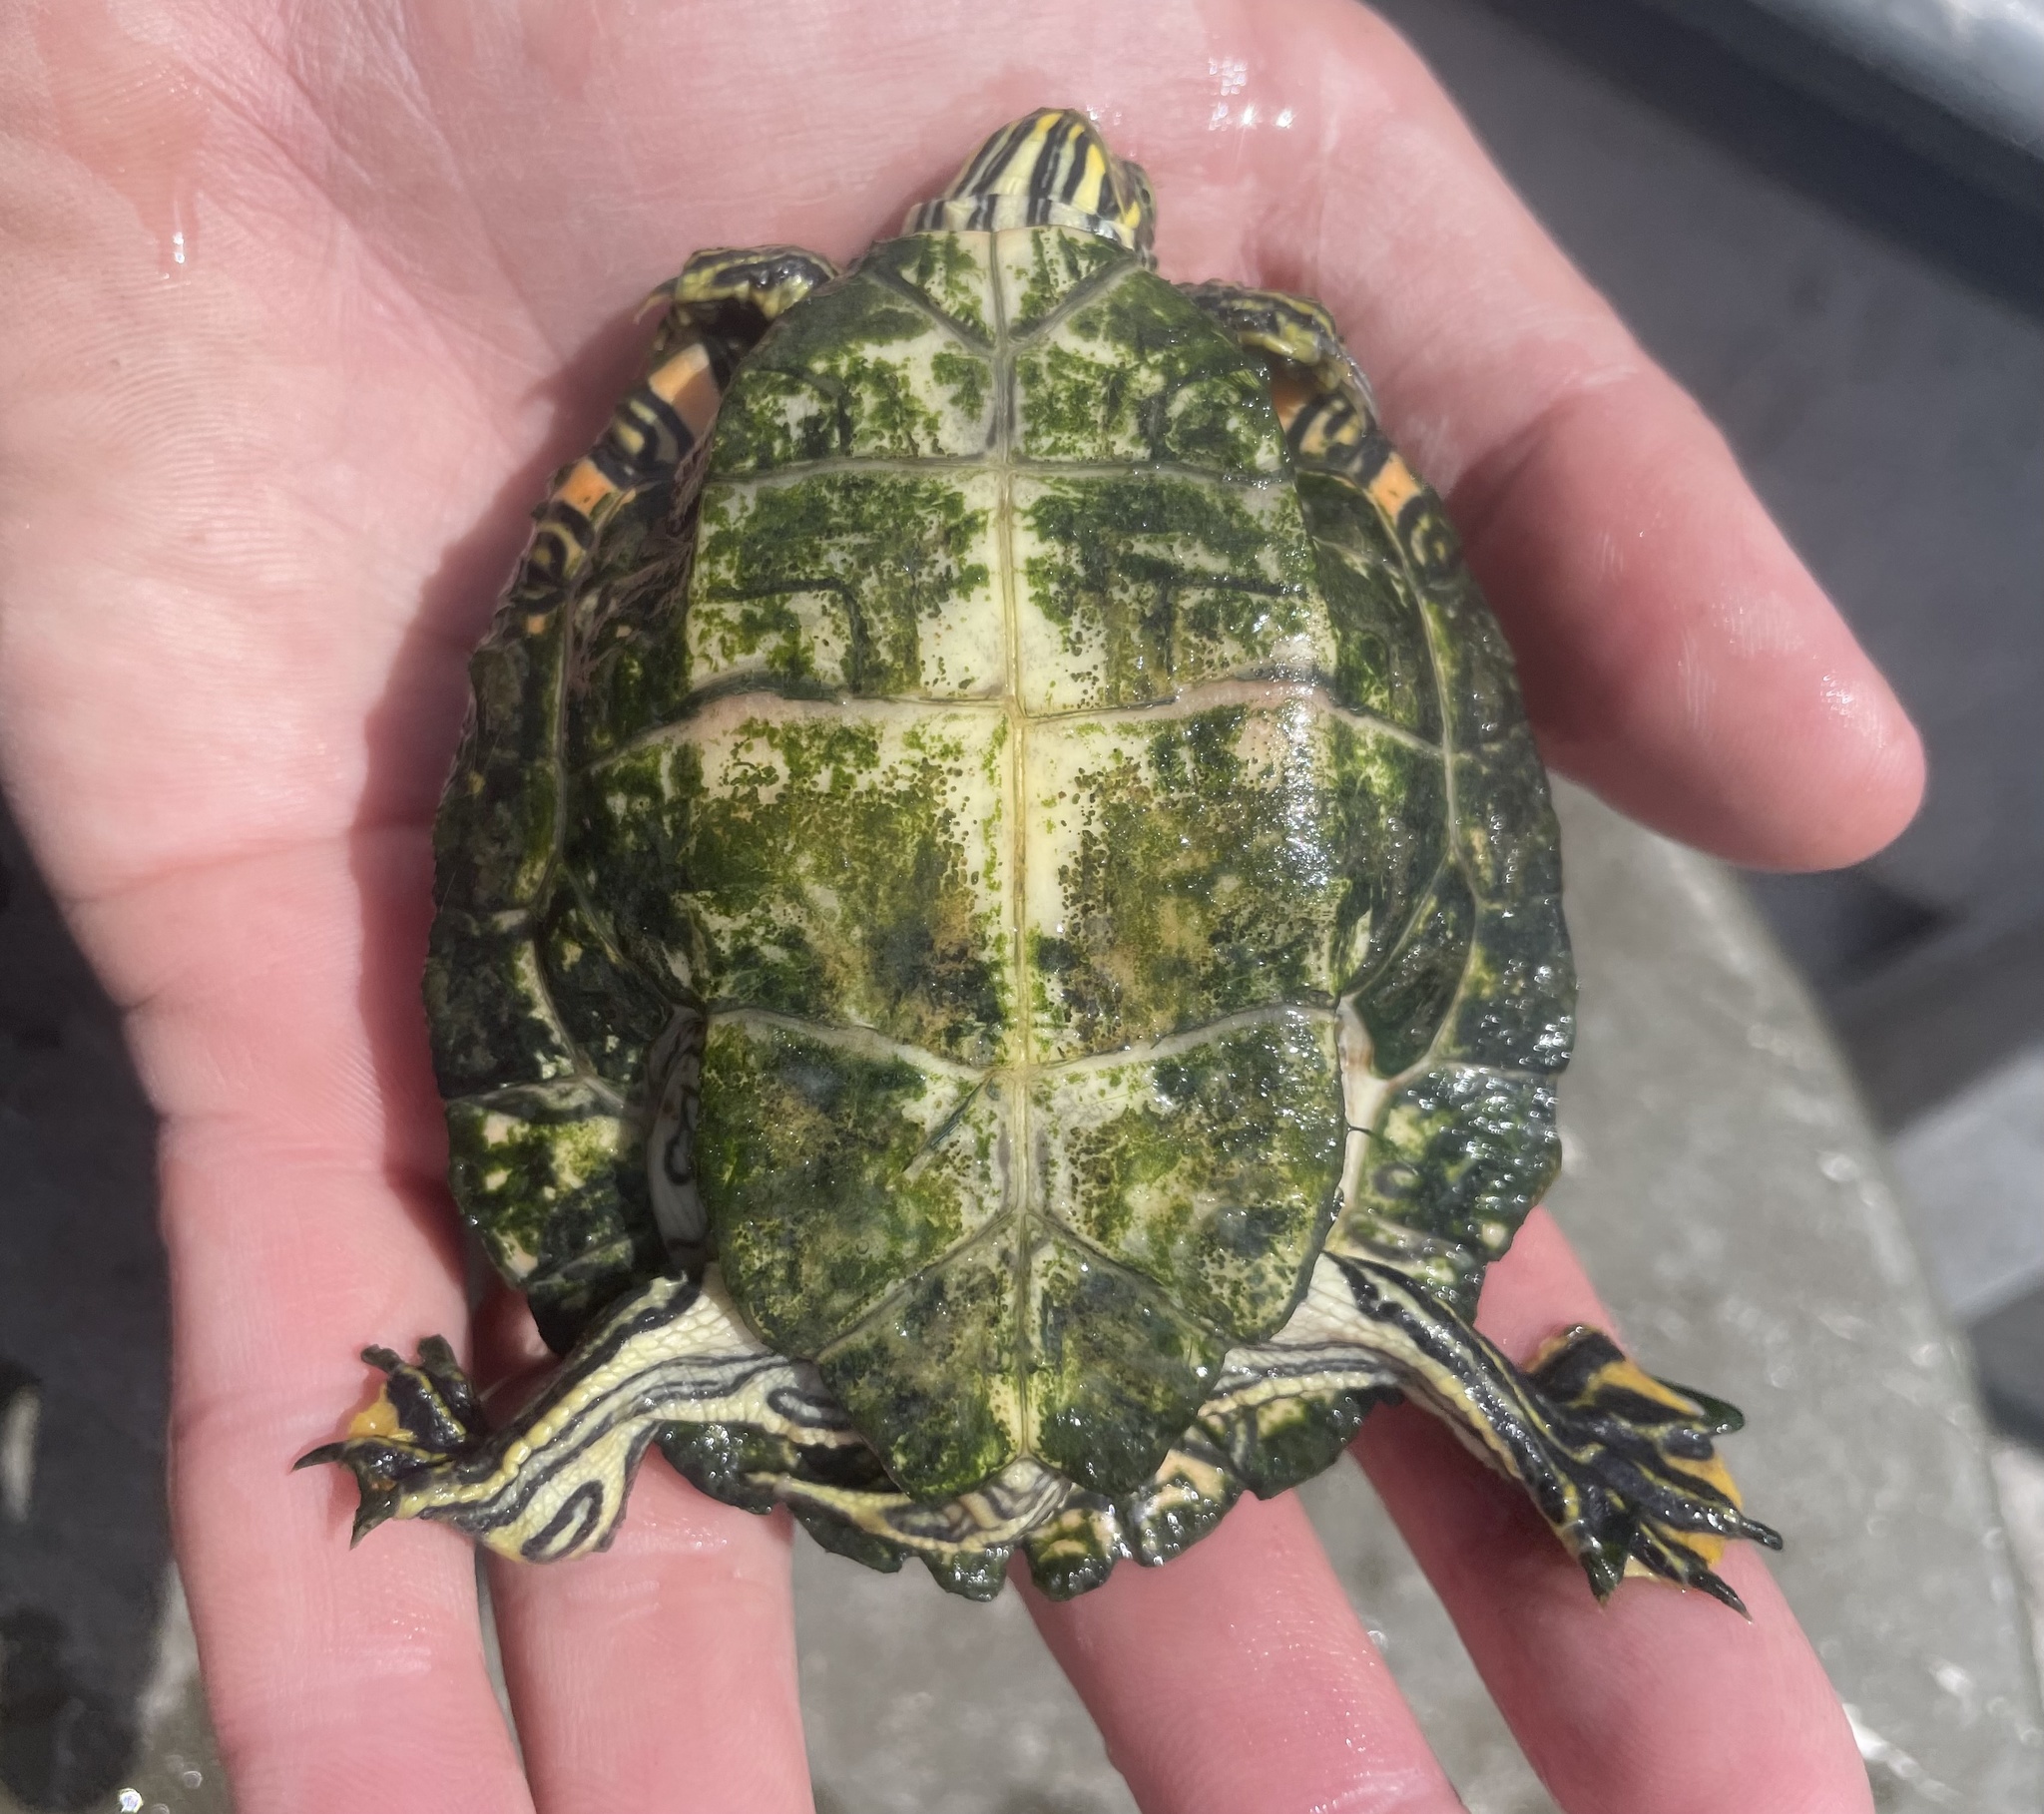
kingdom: Animalia
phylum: Chordata
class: Testudines
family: Emydidae
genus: Pseudemys
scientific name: Pseudemys texana
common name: Texas river cooter
